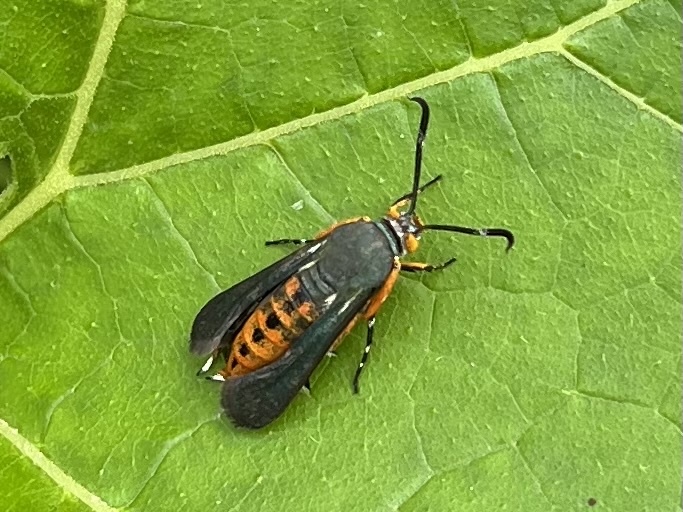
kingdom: Animalia
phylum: Arthropoda
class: Insecta
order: Lepidoptera
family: Sesiidae
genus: Eichlinia
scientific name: Eichlinia calabaza
